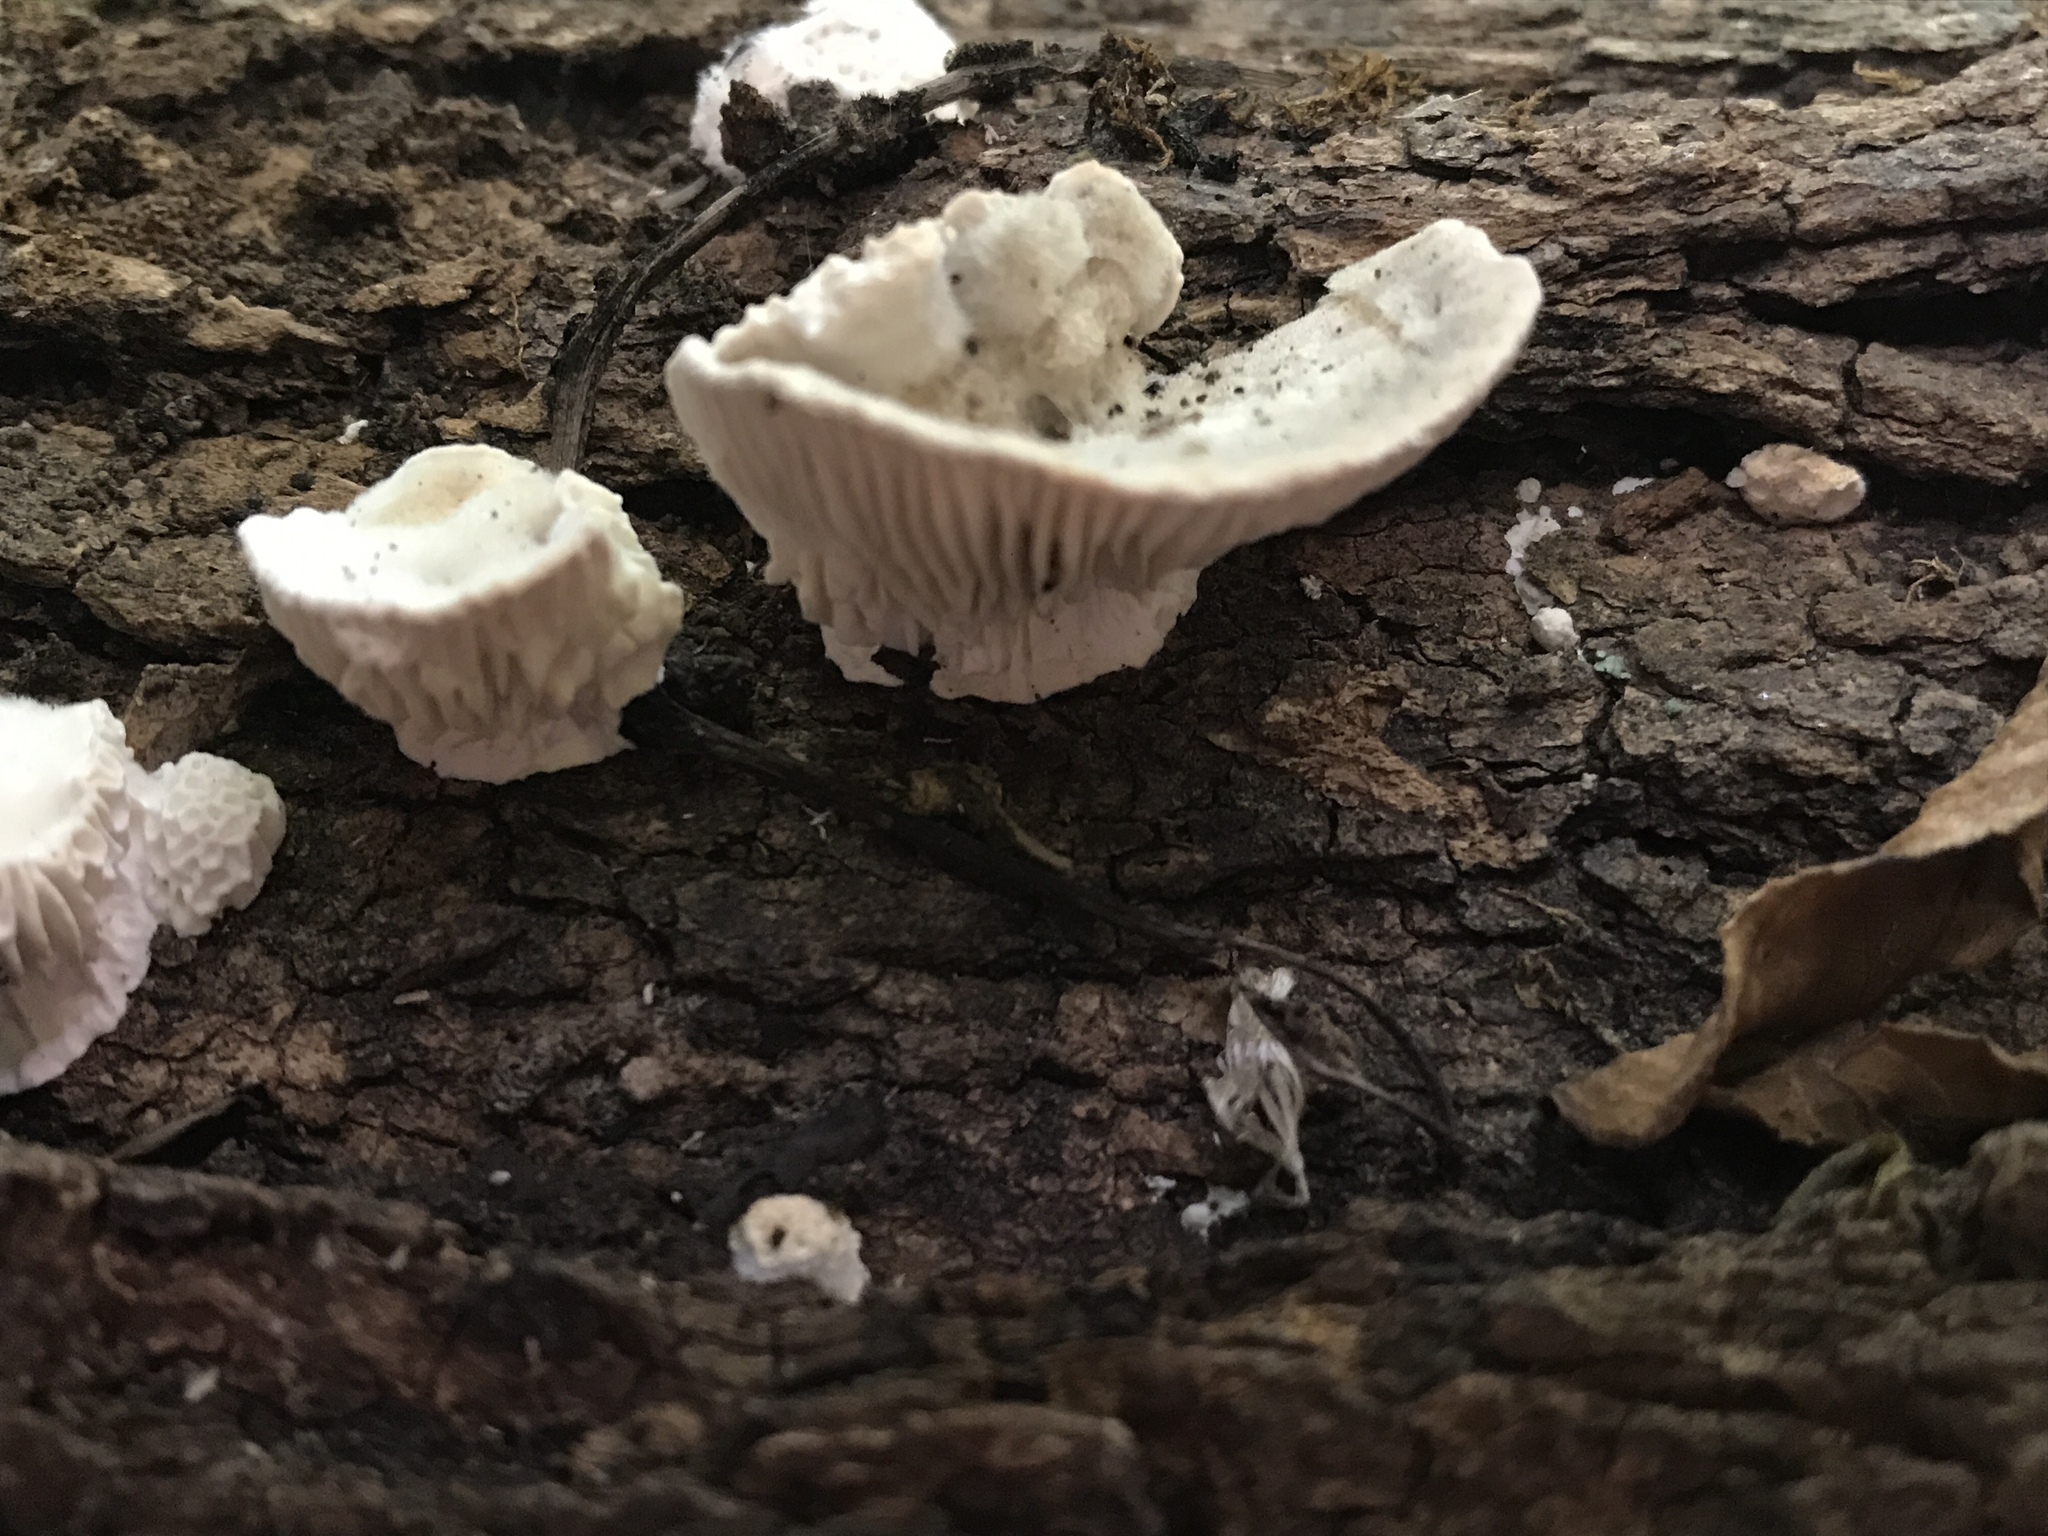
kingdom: Fungi
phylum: Basidiomycota
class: Agaricomycetes
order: Polyporales
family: Polyporaceae
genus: Lenzites
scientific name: Lenzites betulinus
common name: Birch mazegill
